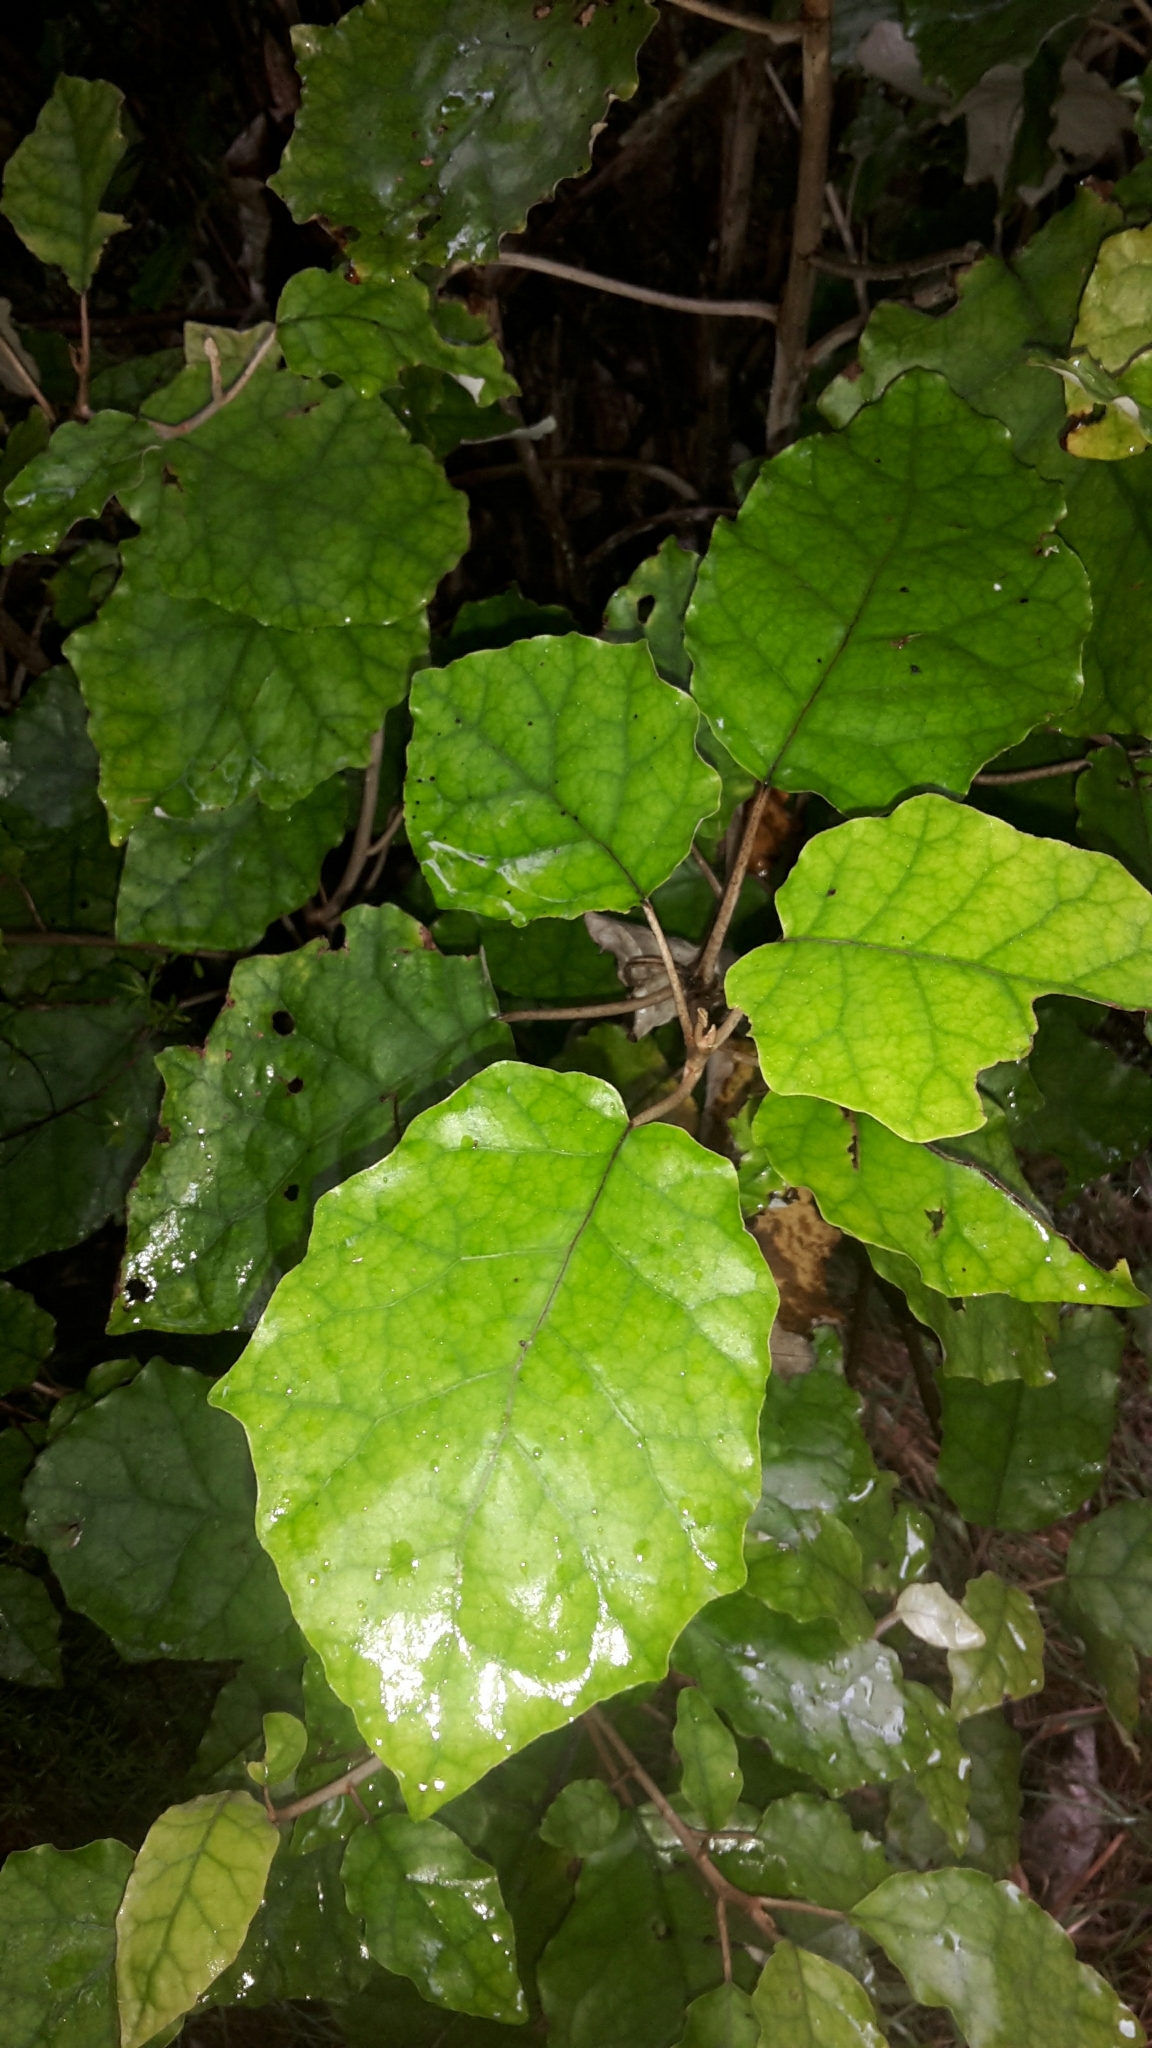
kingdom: Plantae
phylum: Tracheophyta
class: Magnoliopsida
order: Asterales
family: Asteraceae
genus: Brachyglottis
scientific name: Brachyglottis repanda
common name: Hedge ragwort
